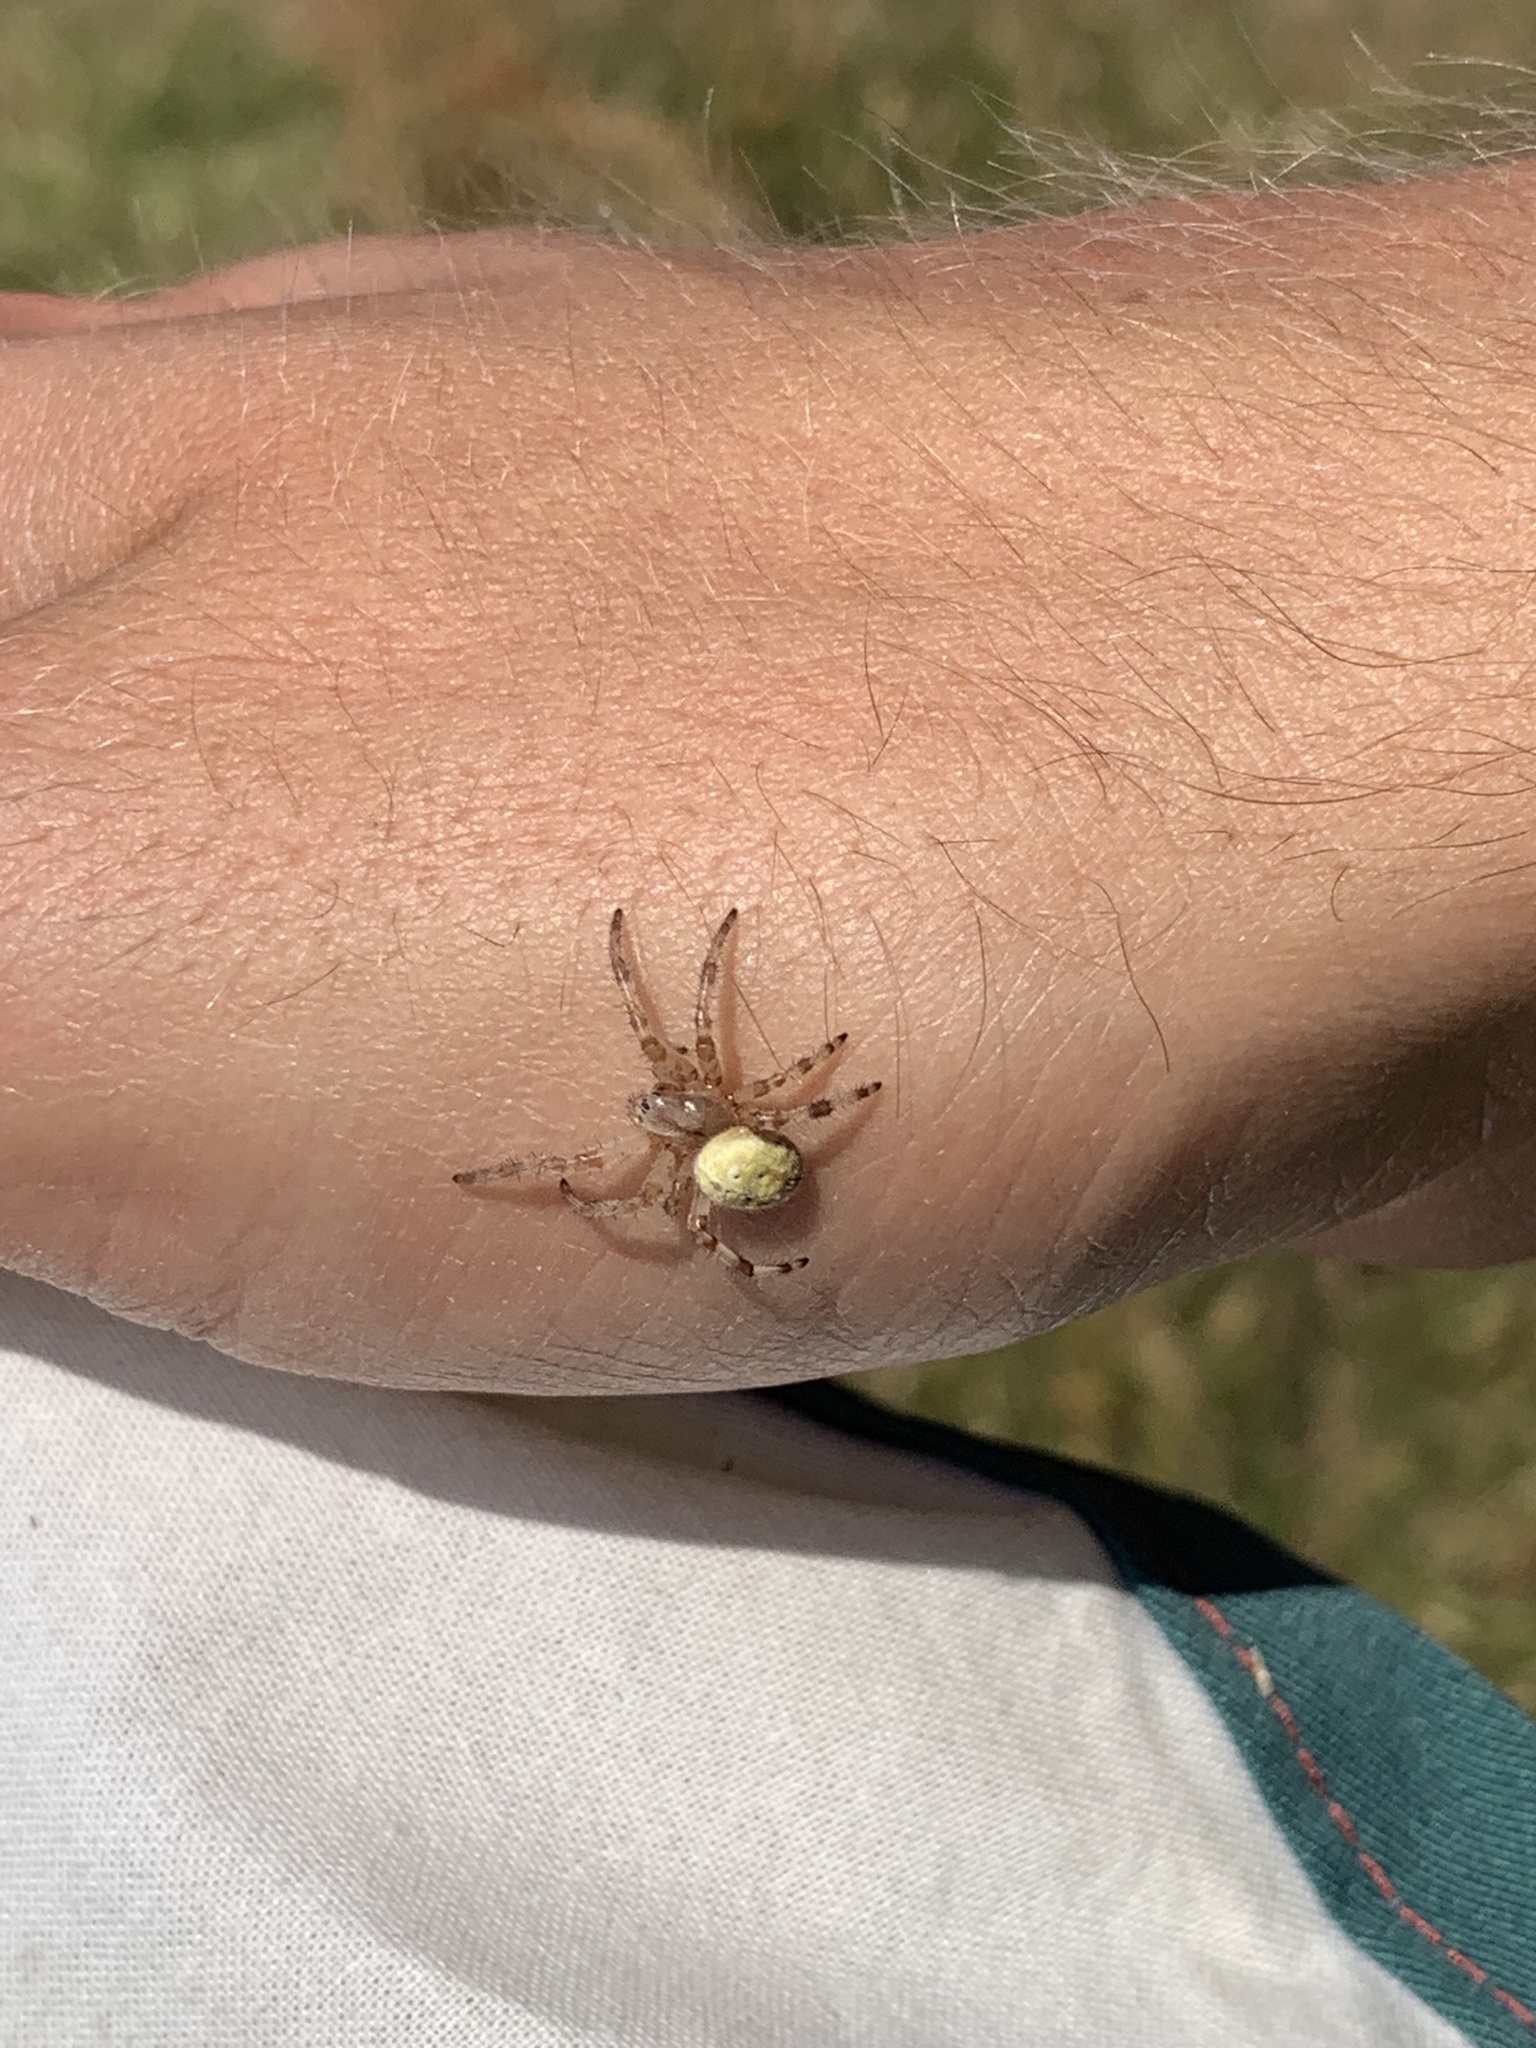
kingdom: Animalia
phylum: Arthropoda
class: Arachnida
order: Araneae
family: Araneidae
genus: Araneus
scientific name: Araneus quadratus
